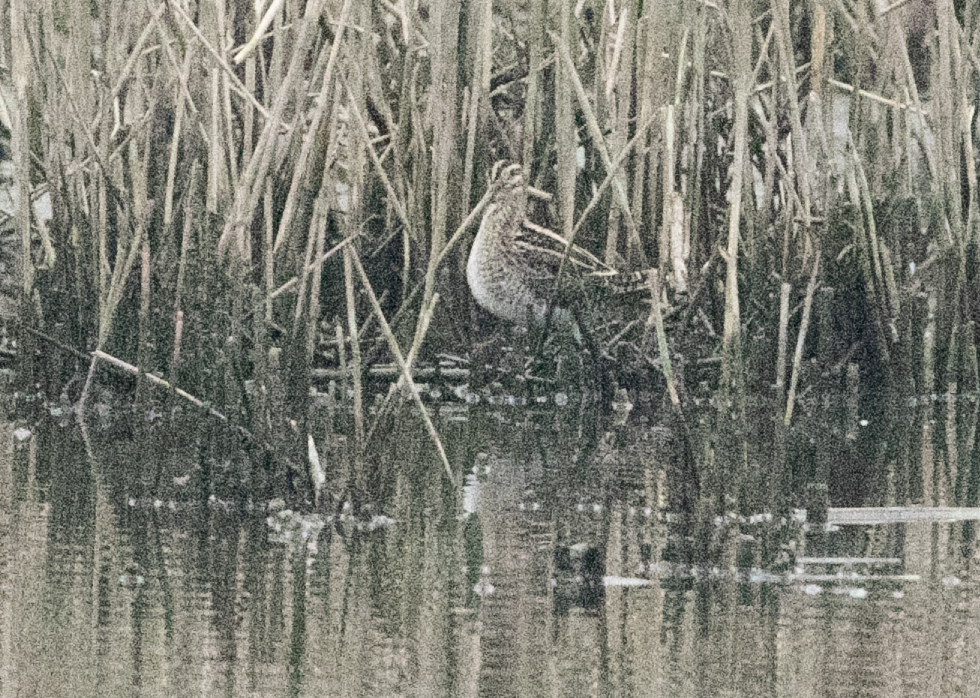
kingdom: Animalia
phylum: Chordata
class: Aves
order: Charadriiformes
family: Scolopacidae
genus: Gallinago
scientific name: Gallinago gallinago
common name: Common snipe
